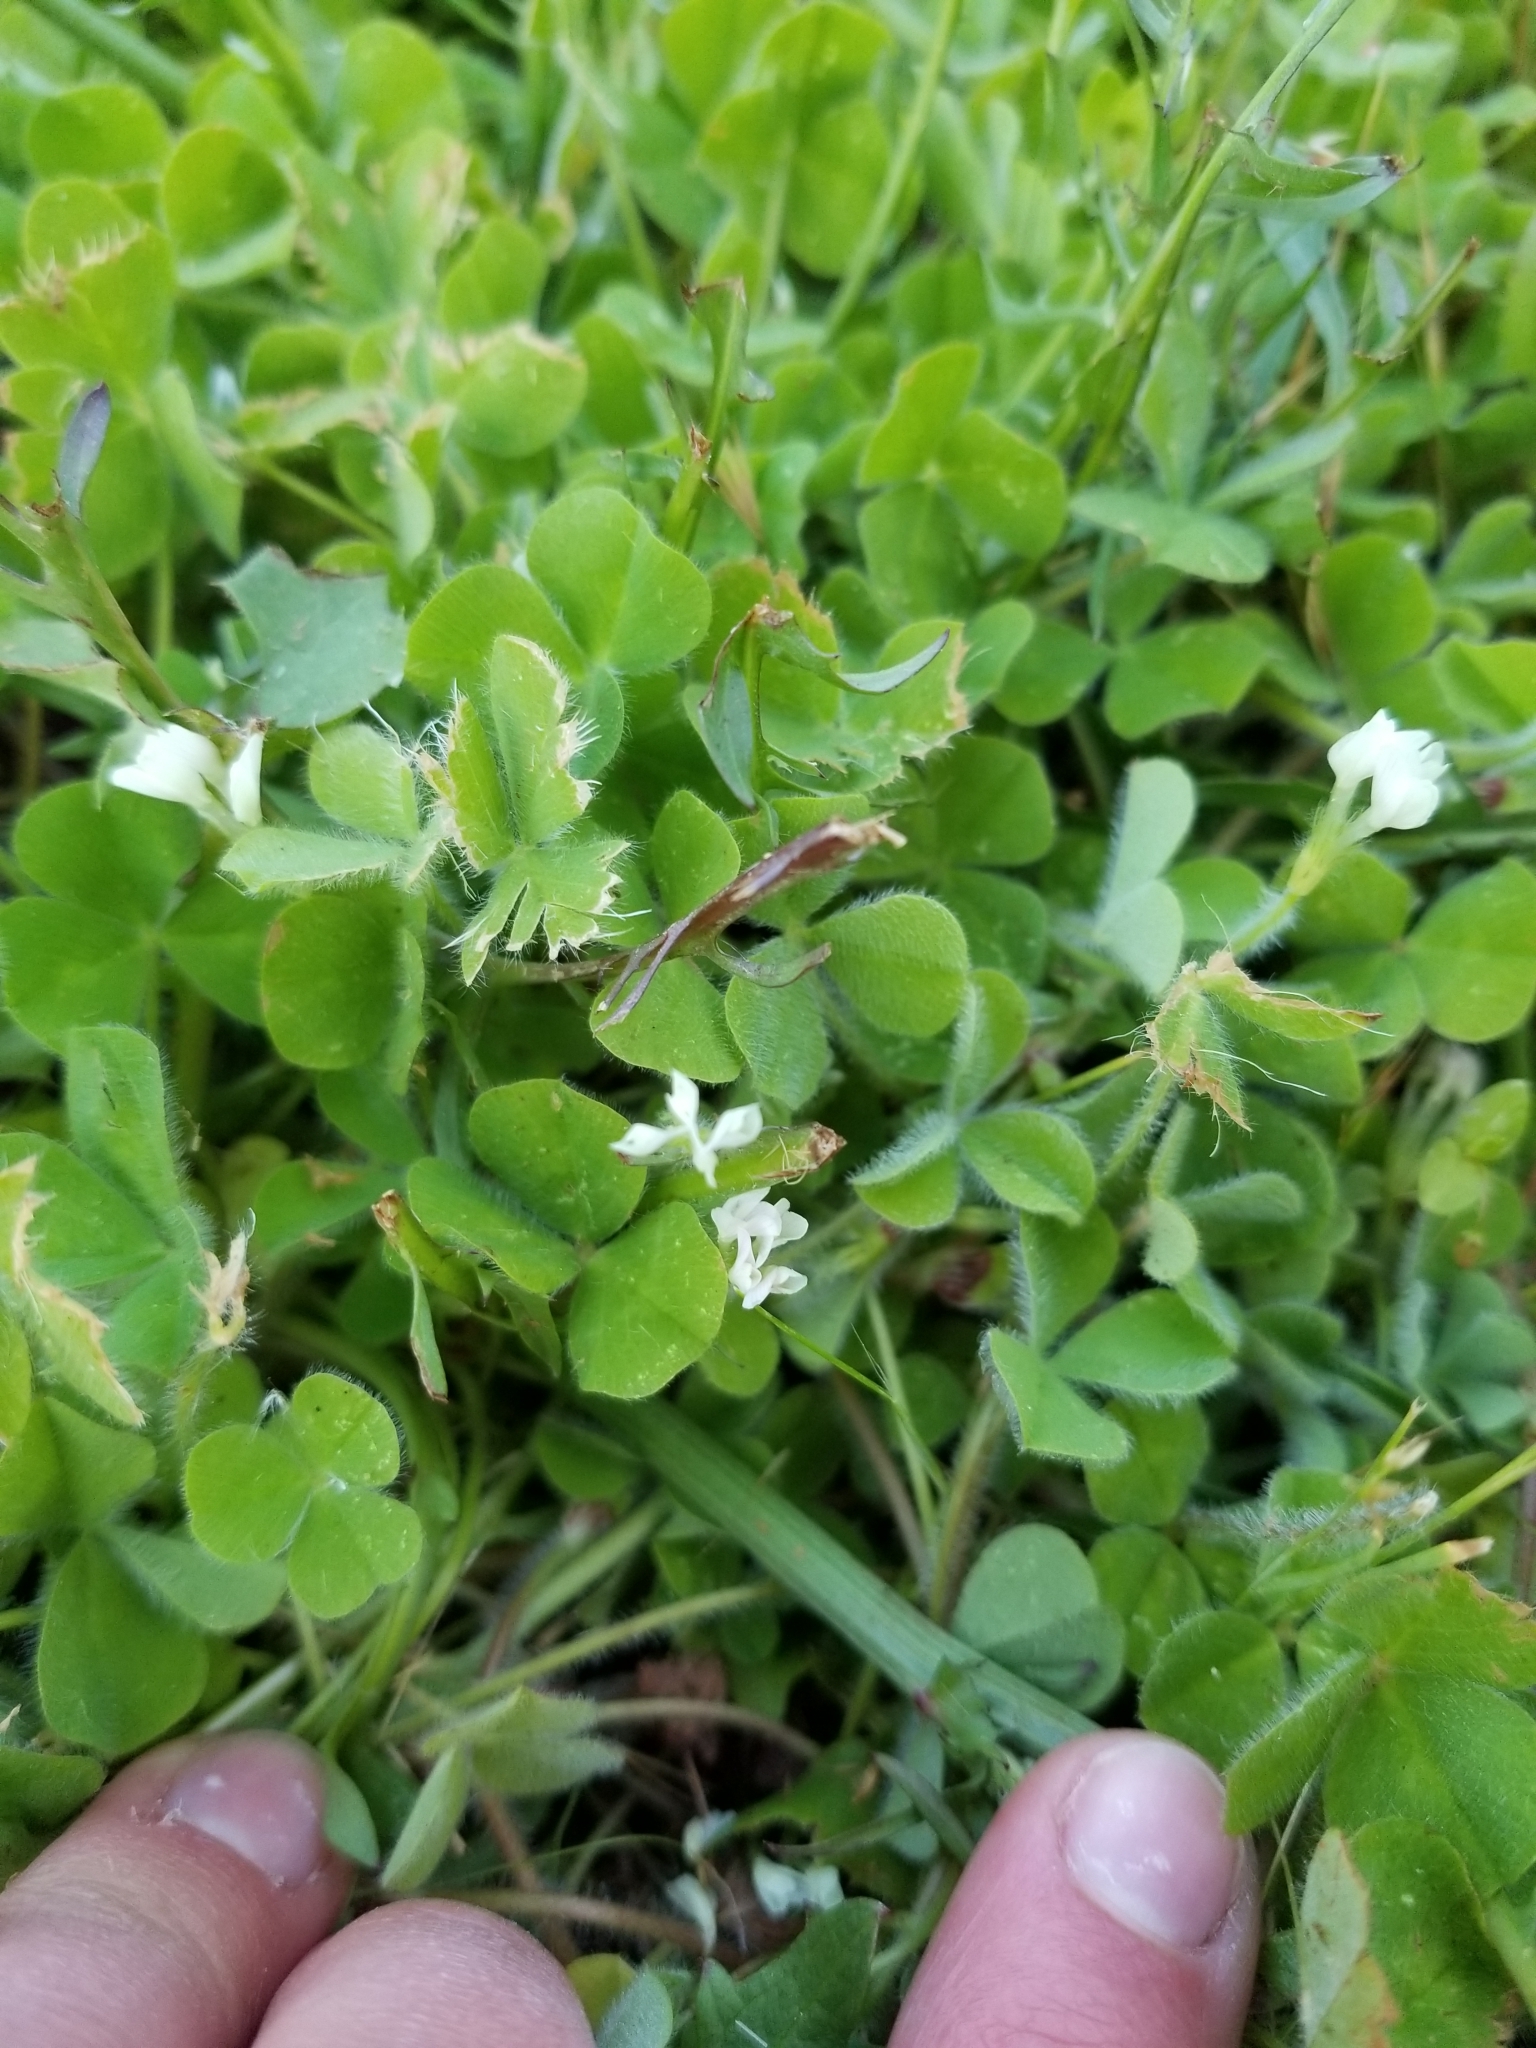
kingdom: Plantae
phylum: Tracheophyta
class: Magnoliopsida
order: Fabales
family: Fabaceae
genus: Trifolium
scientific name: Trifolium subterraneum
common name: Subterranean clover
